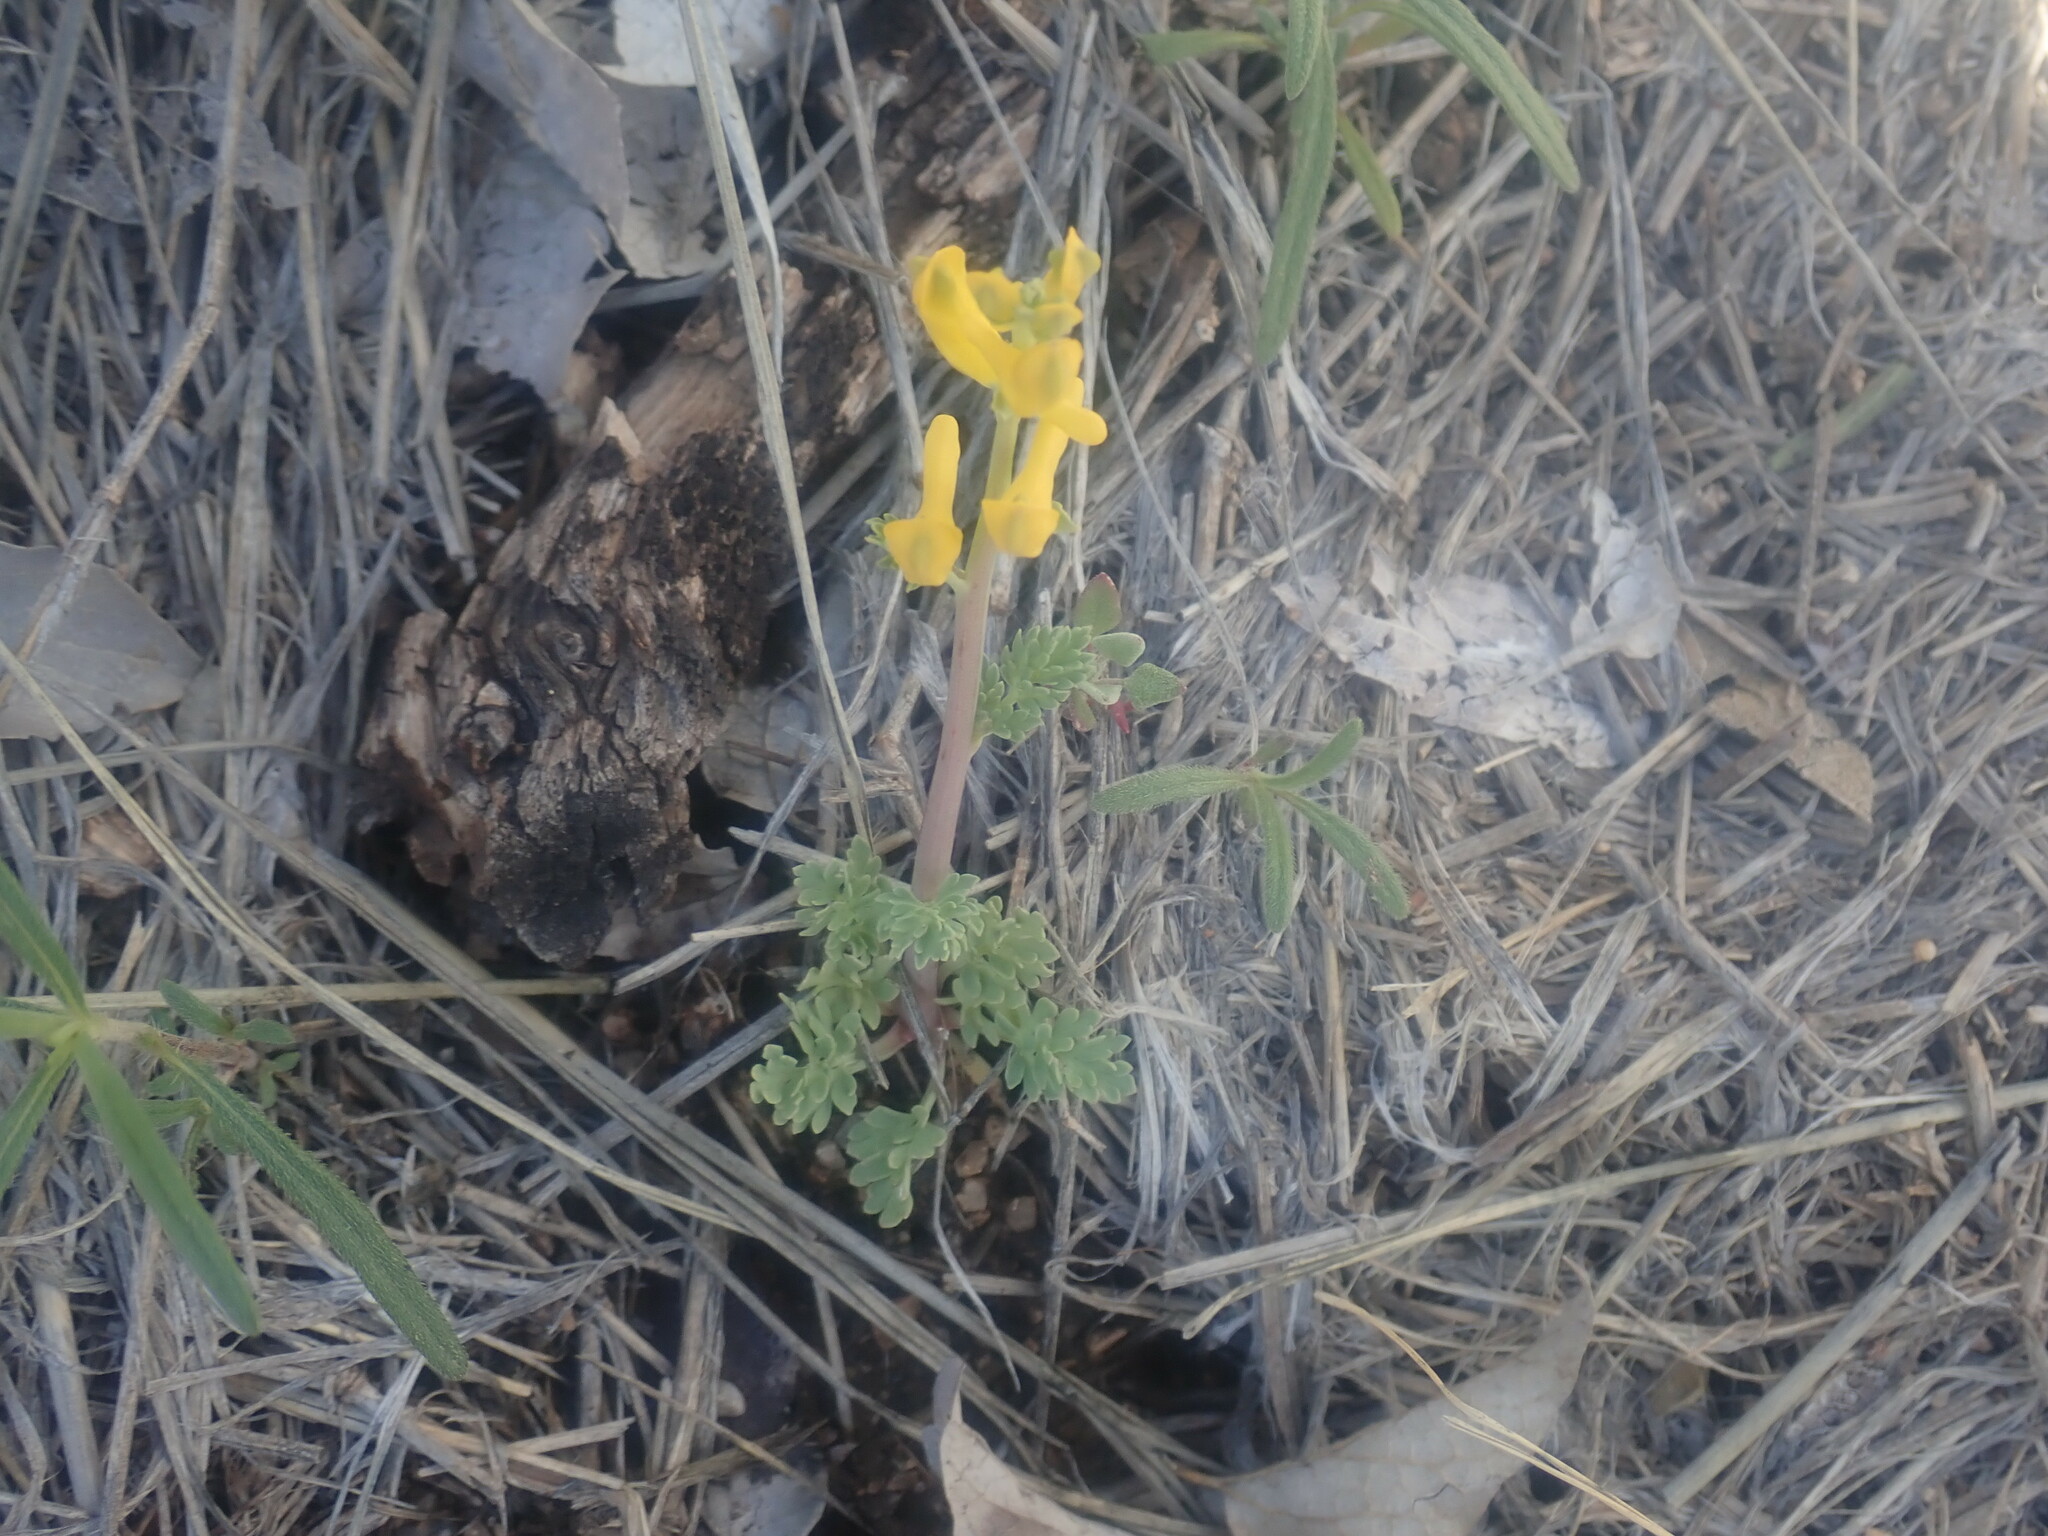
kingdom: Plantae
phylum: Tracheophyta
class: Magnoliopsida
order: Ranunculales
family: Papaveraceae
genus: Corydalis
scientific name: Corydalis aurea
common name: Golden corydalis
